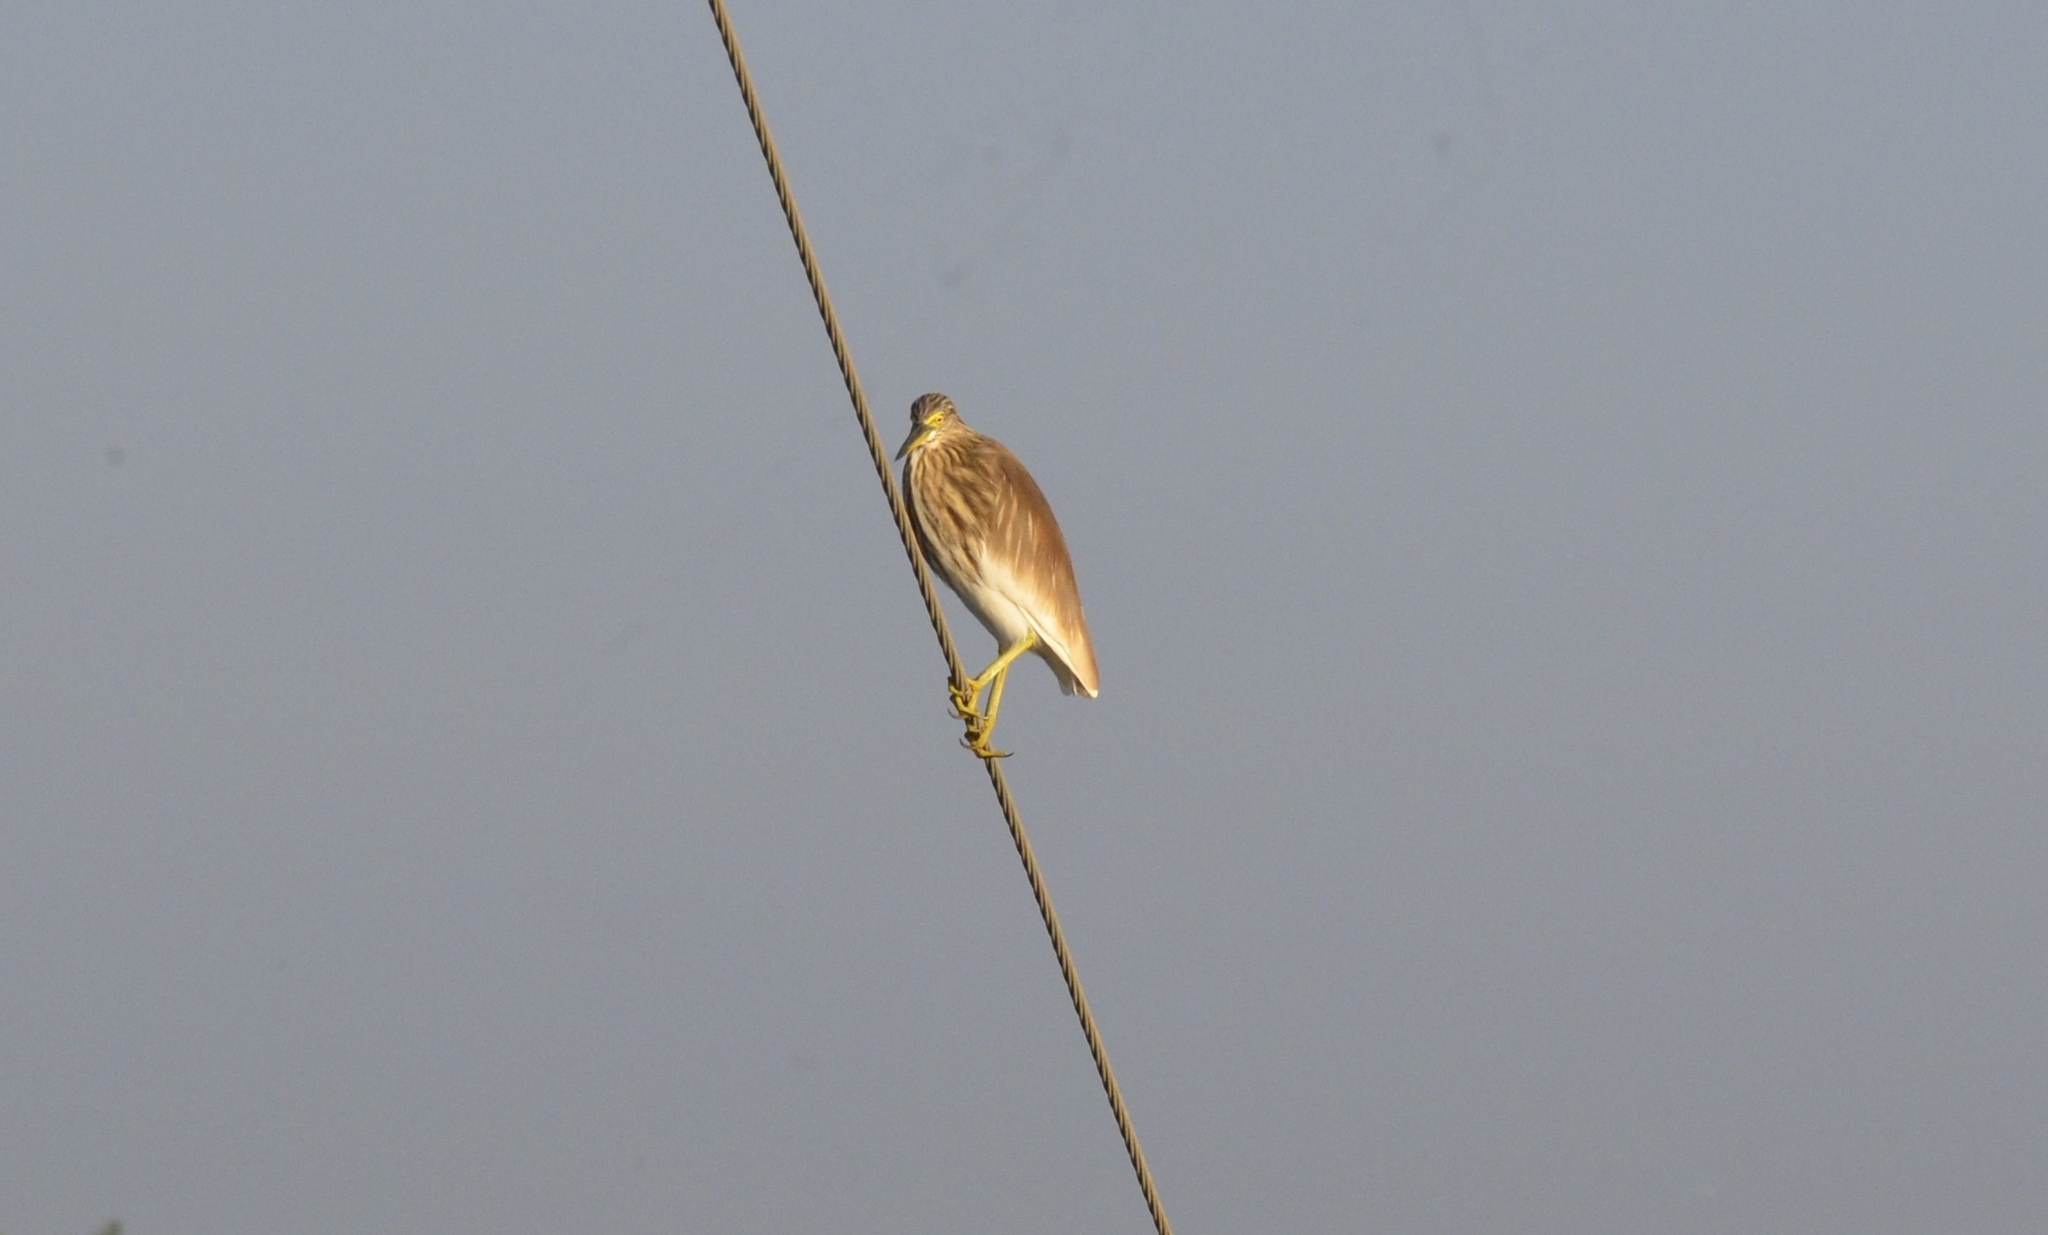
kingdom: Animalia
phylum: Chordata
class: Aves
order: Pelecaniformes
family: Ardeidae
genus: Ardeola
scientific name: Ardeola grayii
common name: Indian pond heron
